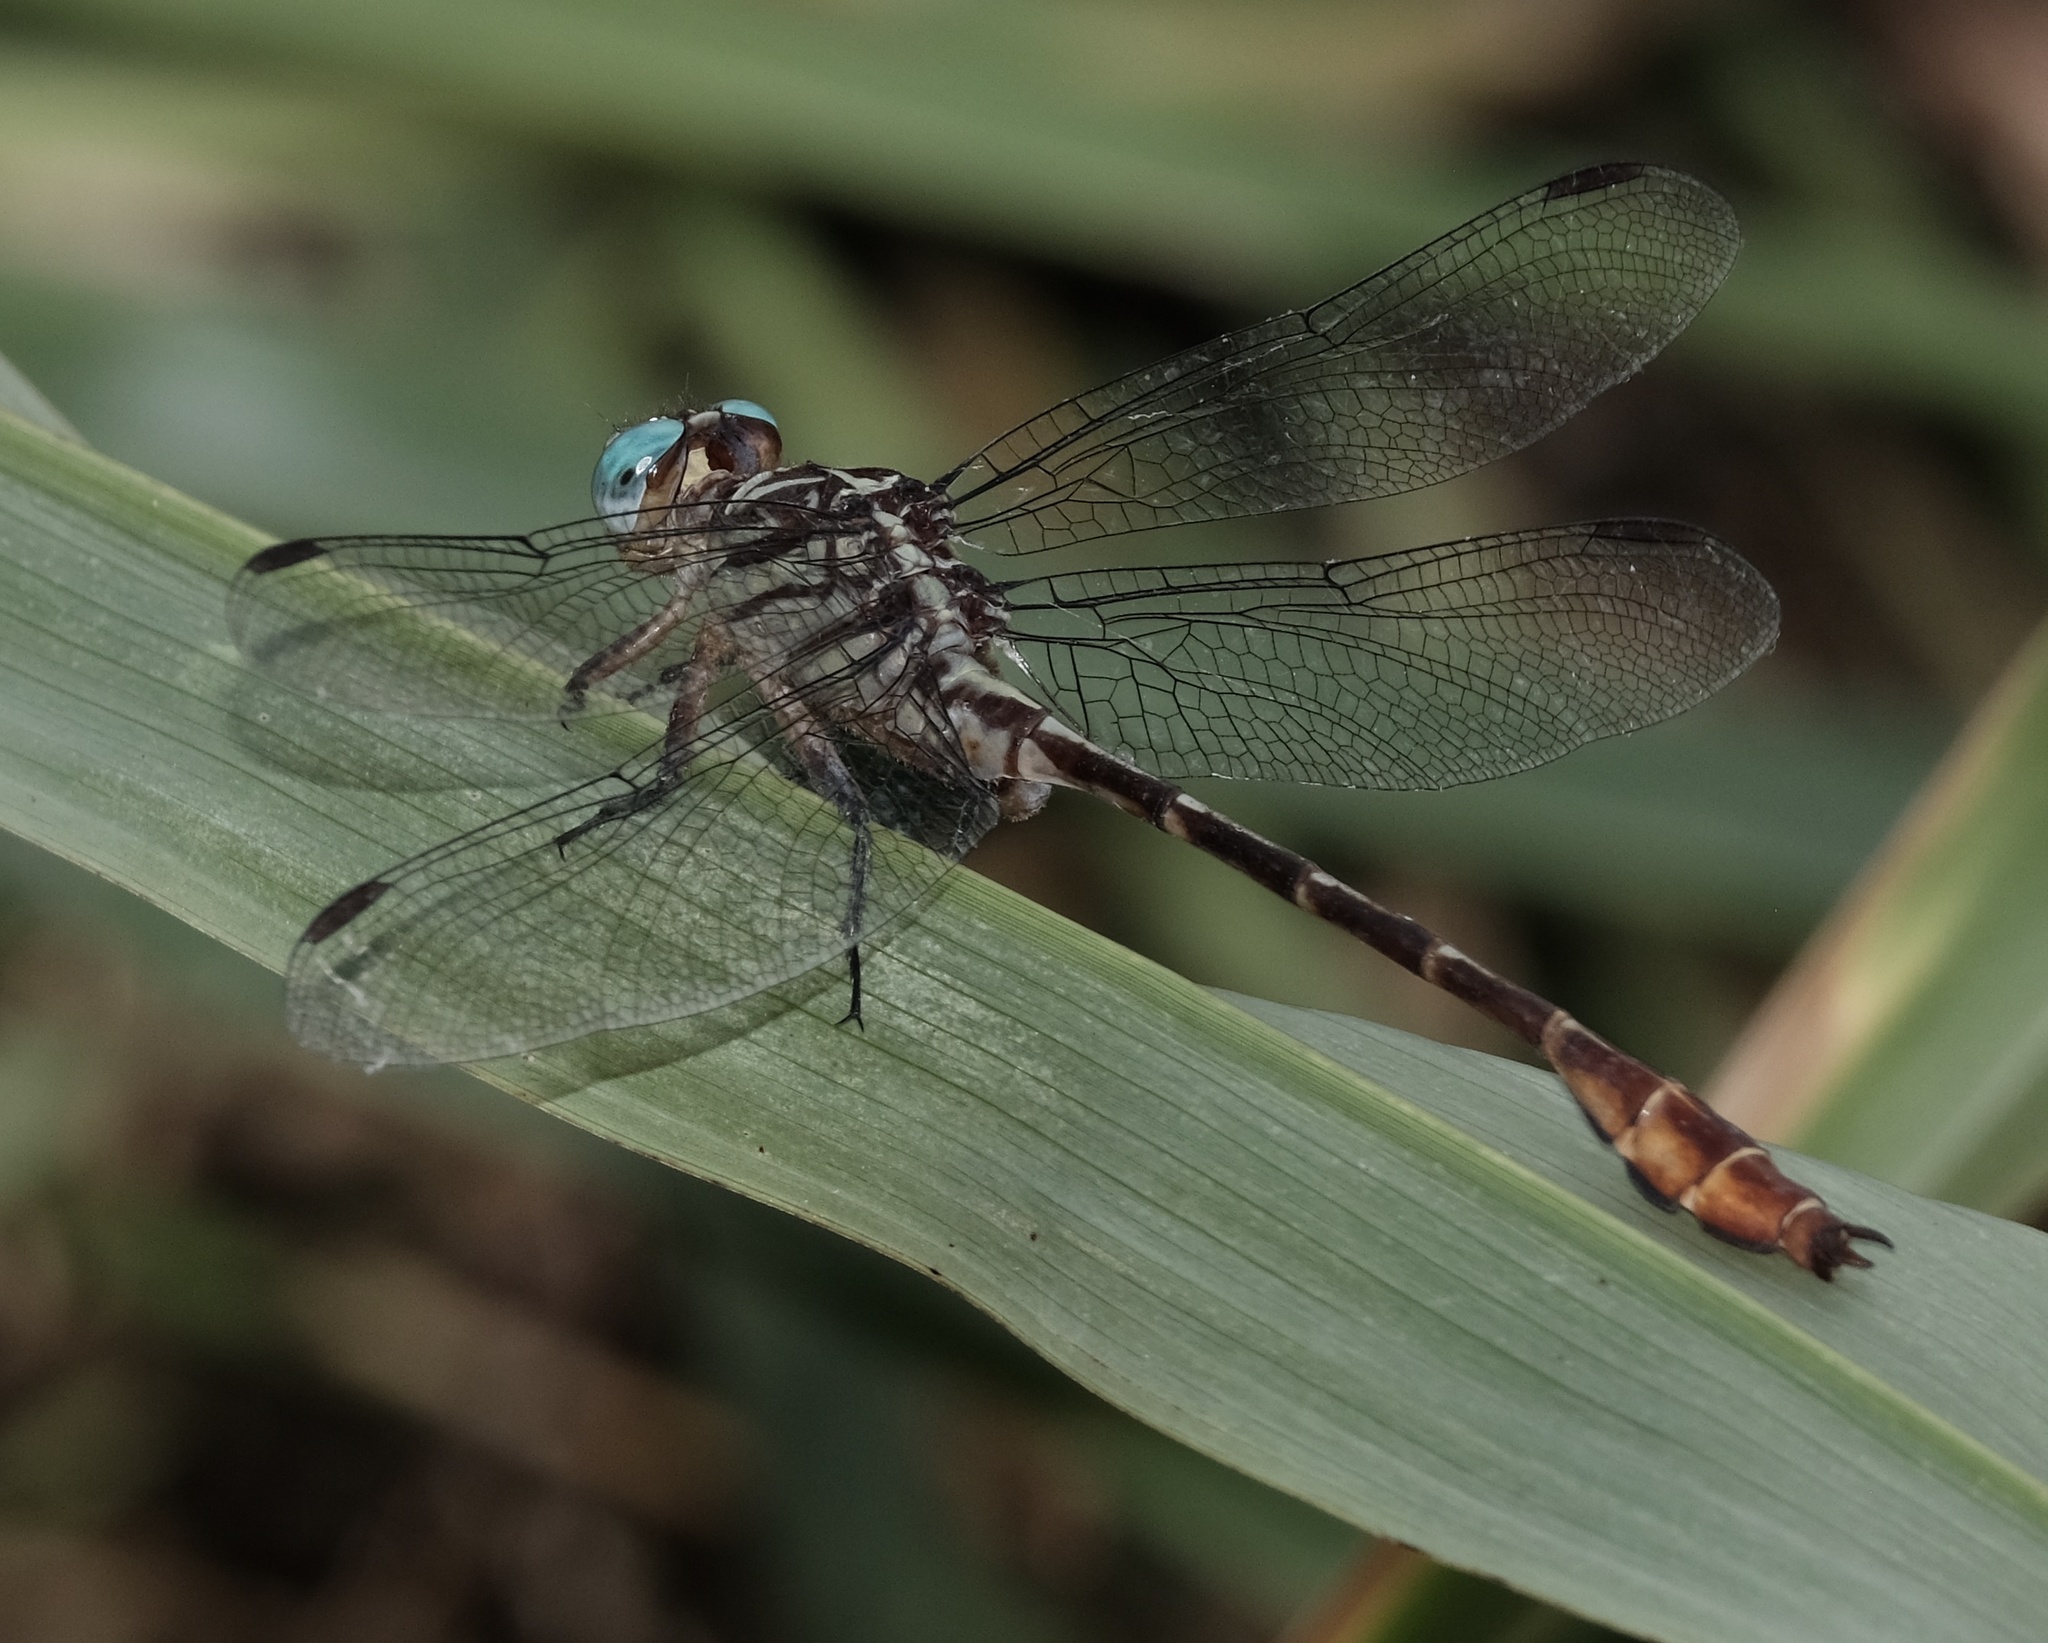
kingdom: Animalia
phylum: Arthropoda
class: Insecta
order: Odonata
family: Gomphidae
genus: Stylurus
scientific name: Stylurus plagiatus
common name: Russet-tipped clubtail
